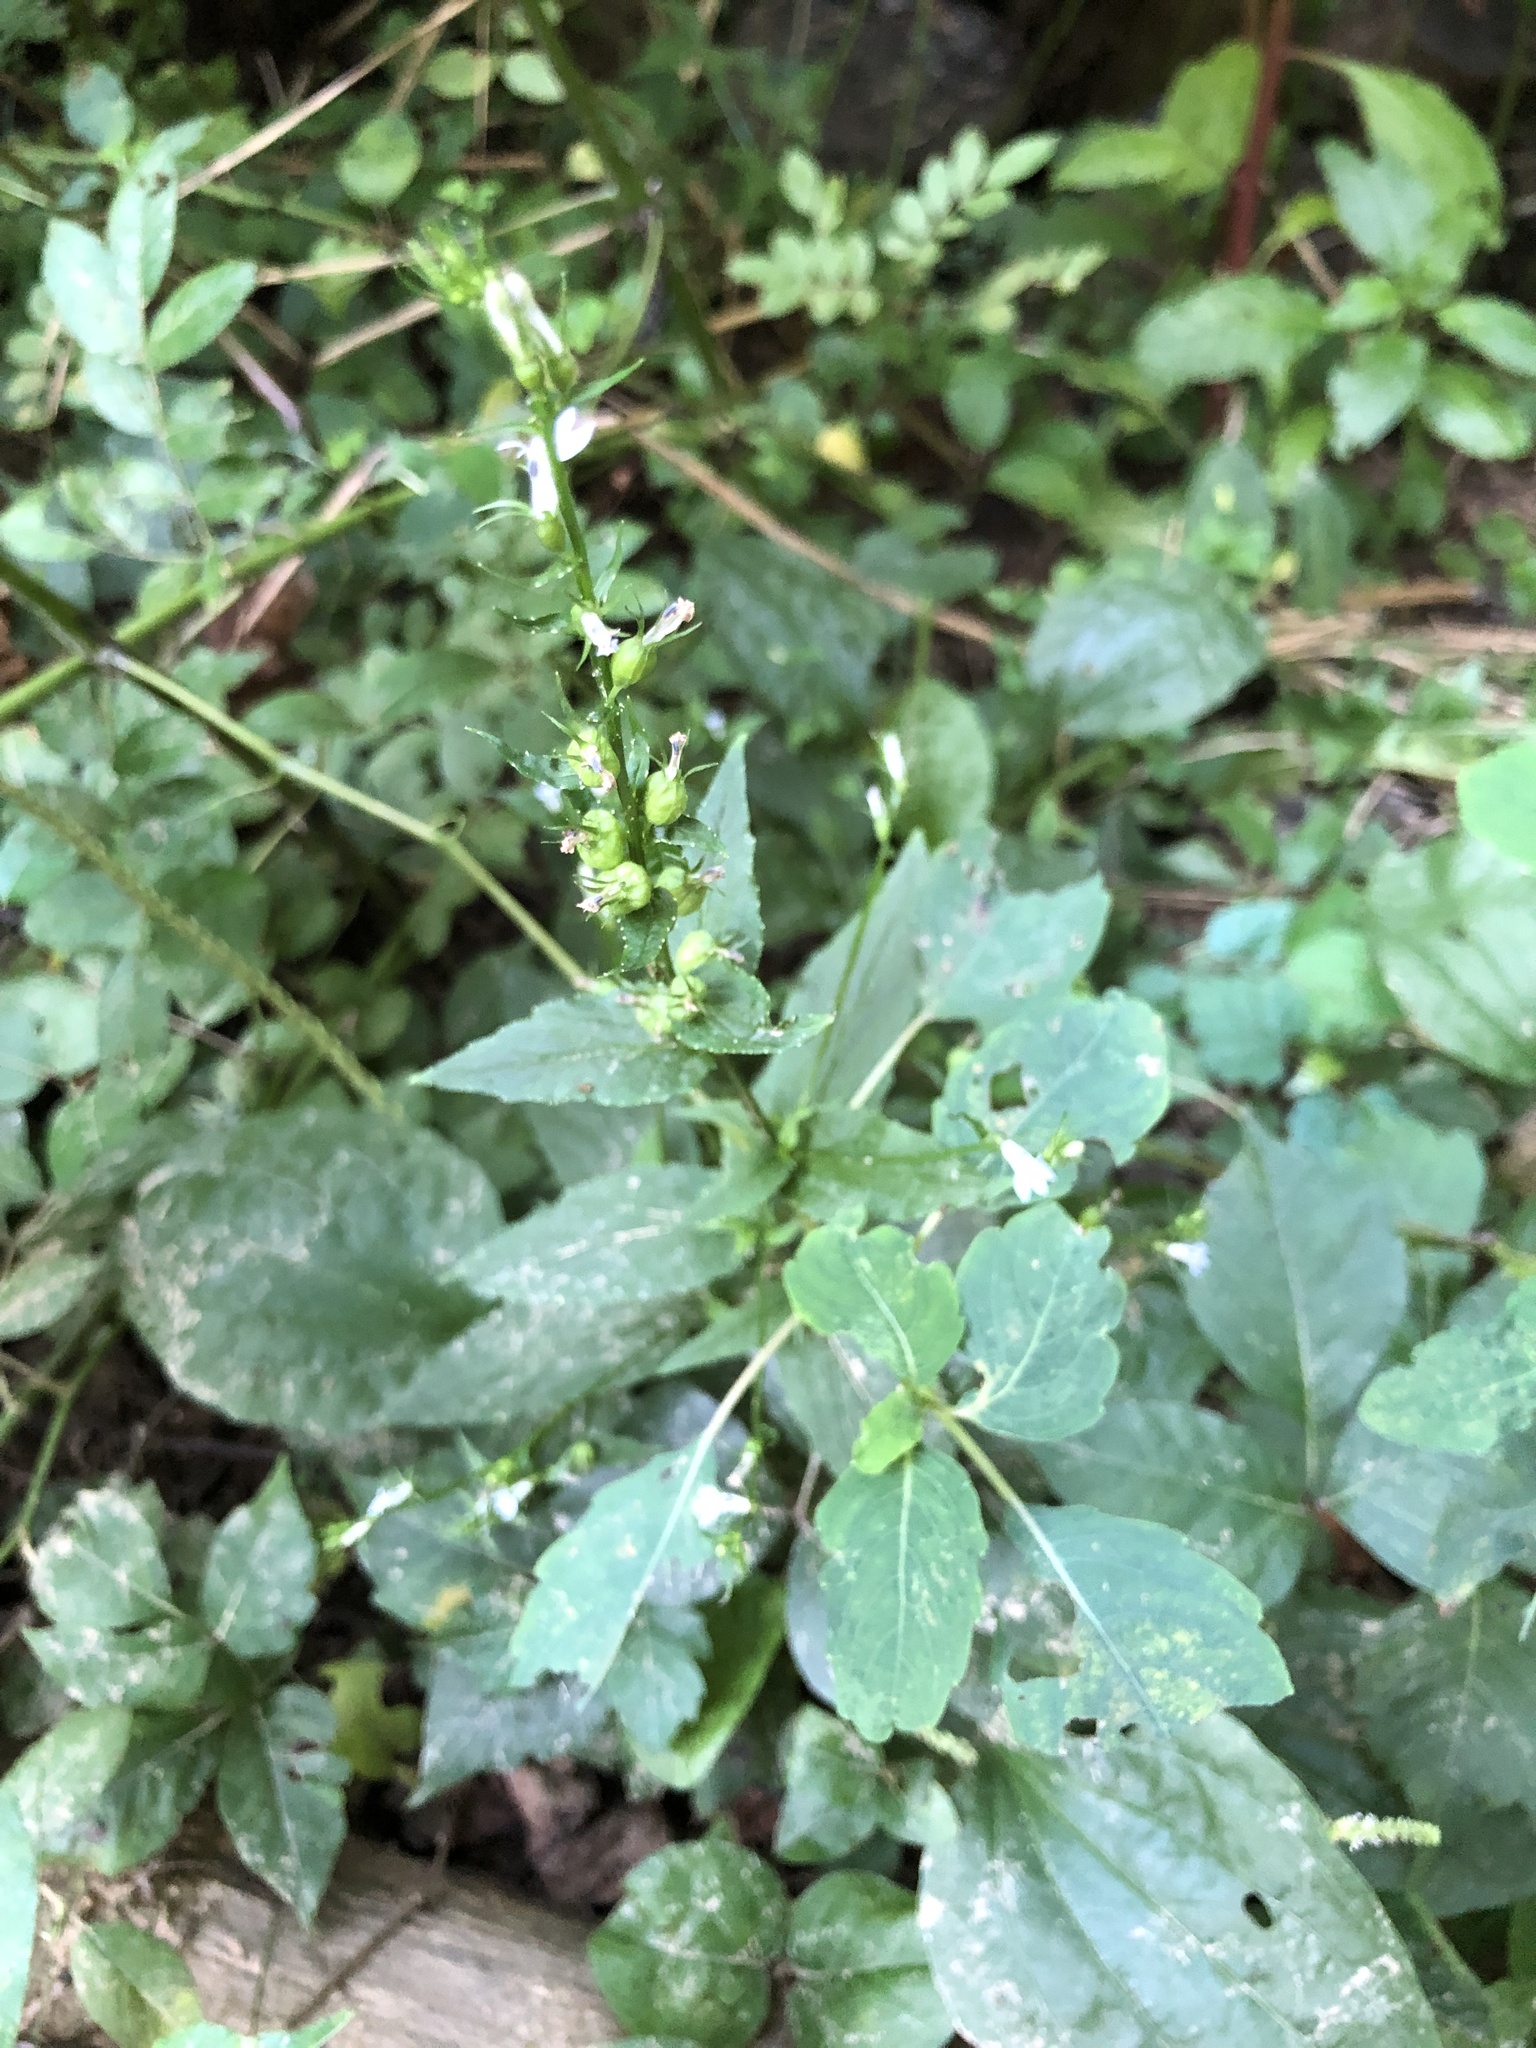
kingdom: Plantae
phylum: Tracheophyta
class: Magnoliopsida
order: Asterales
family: Campanulaceae
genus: Lobelia
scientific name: Lobelia inflata
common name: Indian tobacco
